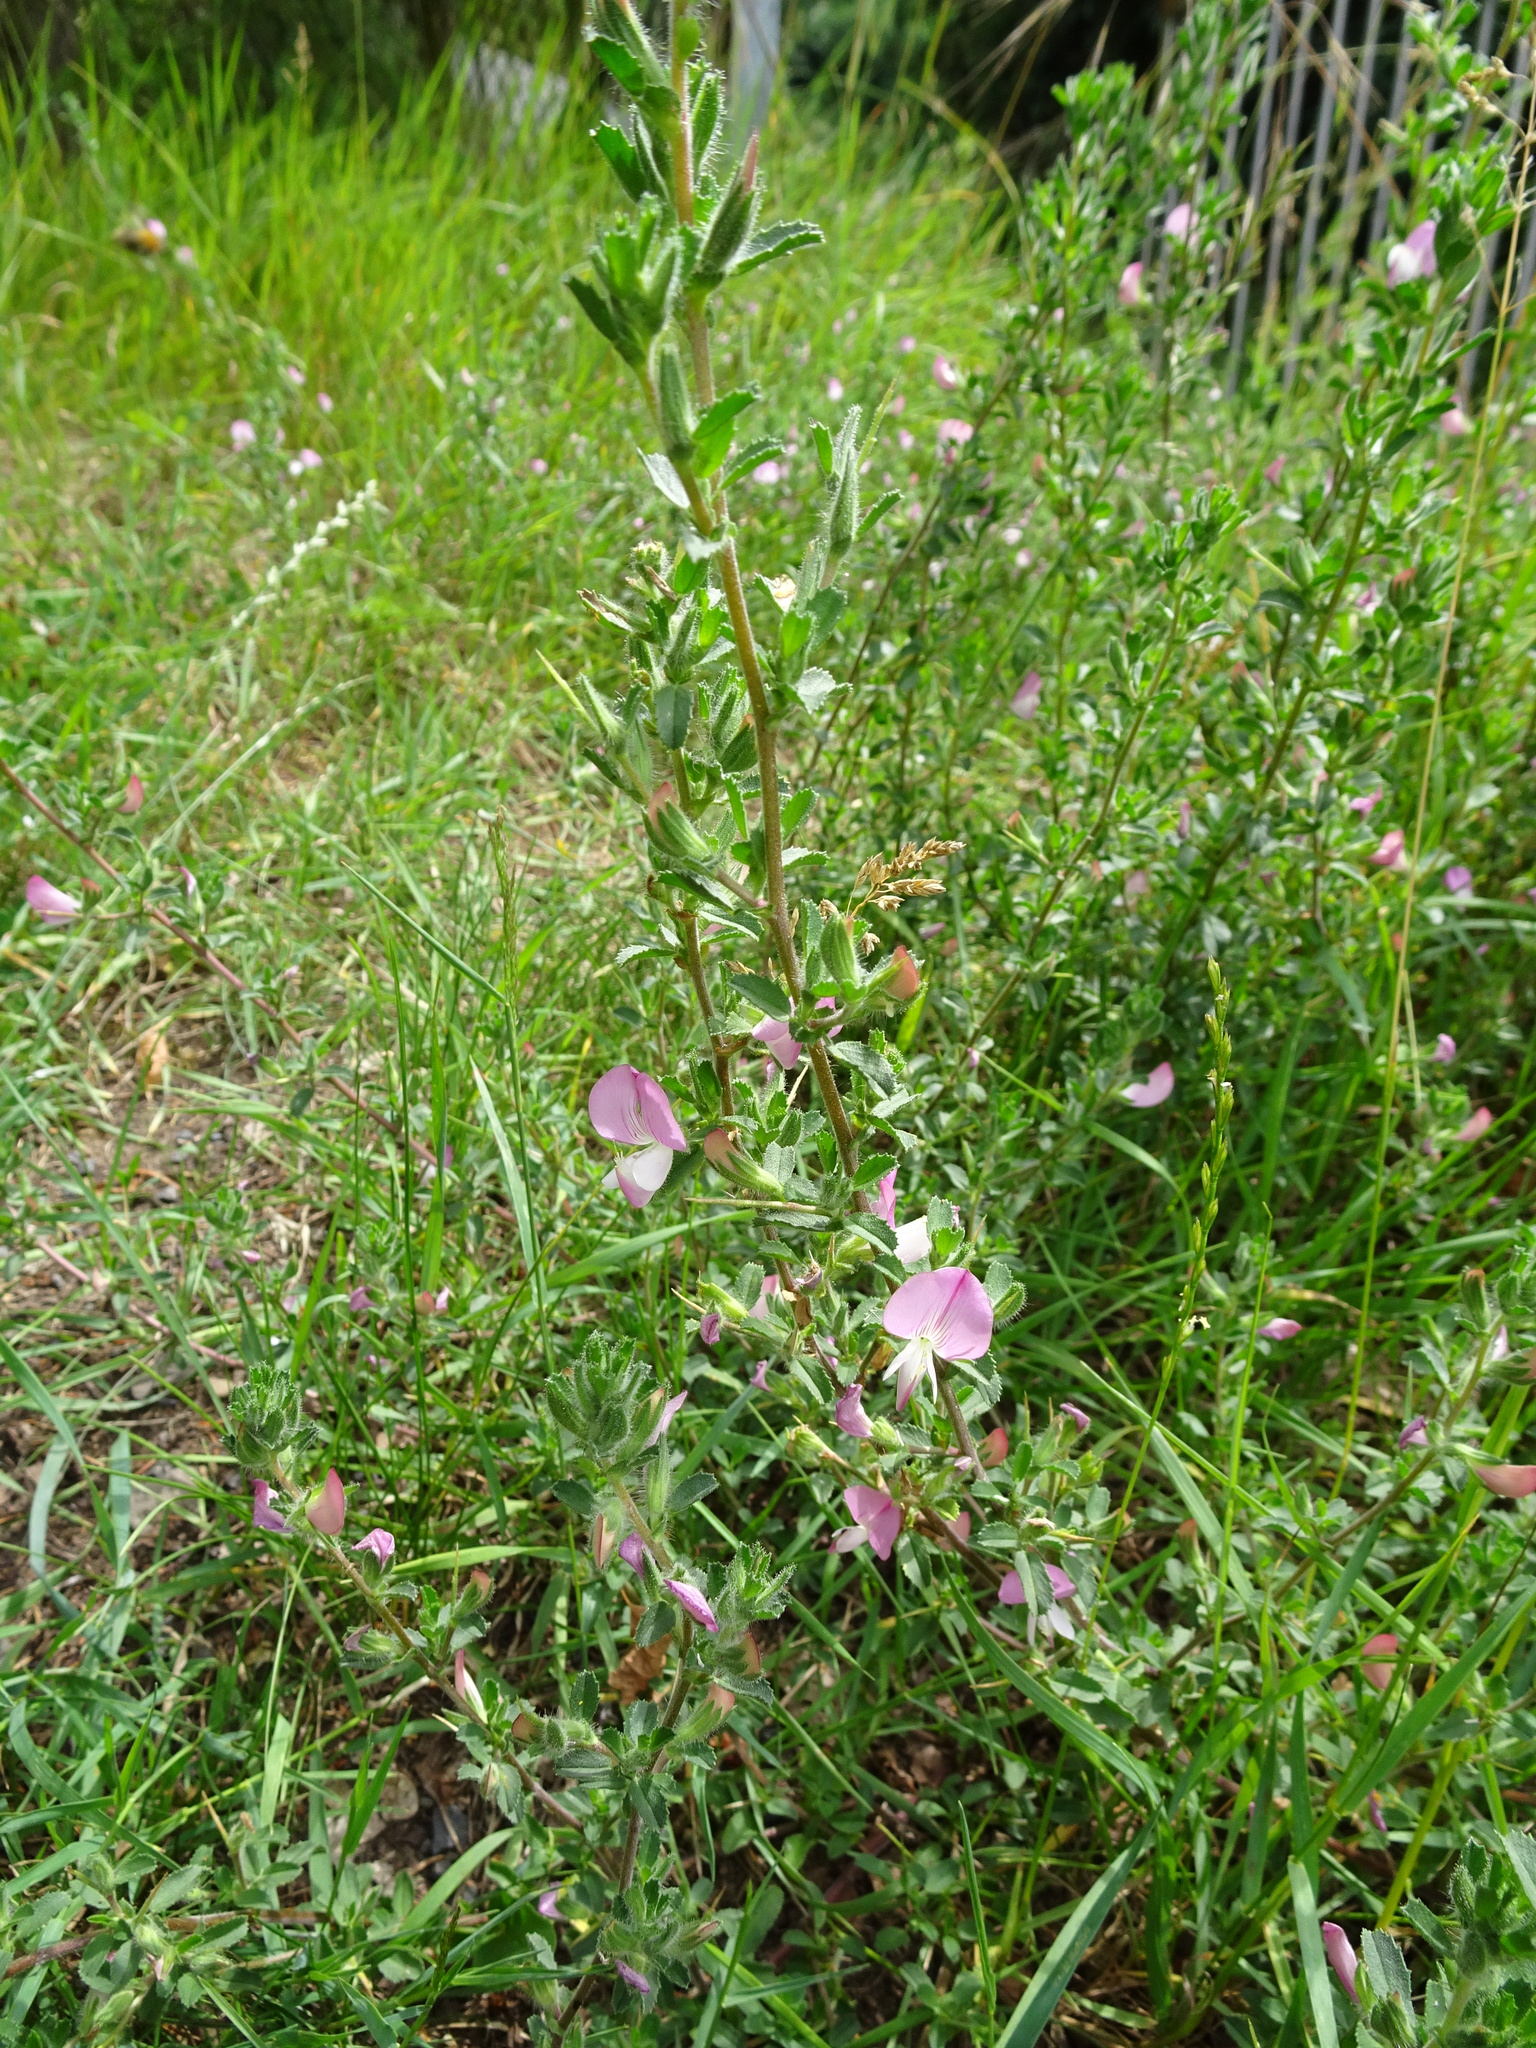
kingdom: Plantae
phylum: Tracheophyta
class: Magnoliopsida
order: Fabales
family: Fabaceae
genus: Ononis
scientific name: Ononis spinosa
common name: Spiny restharrow
